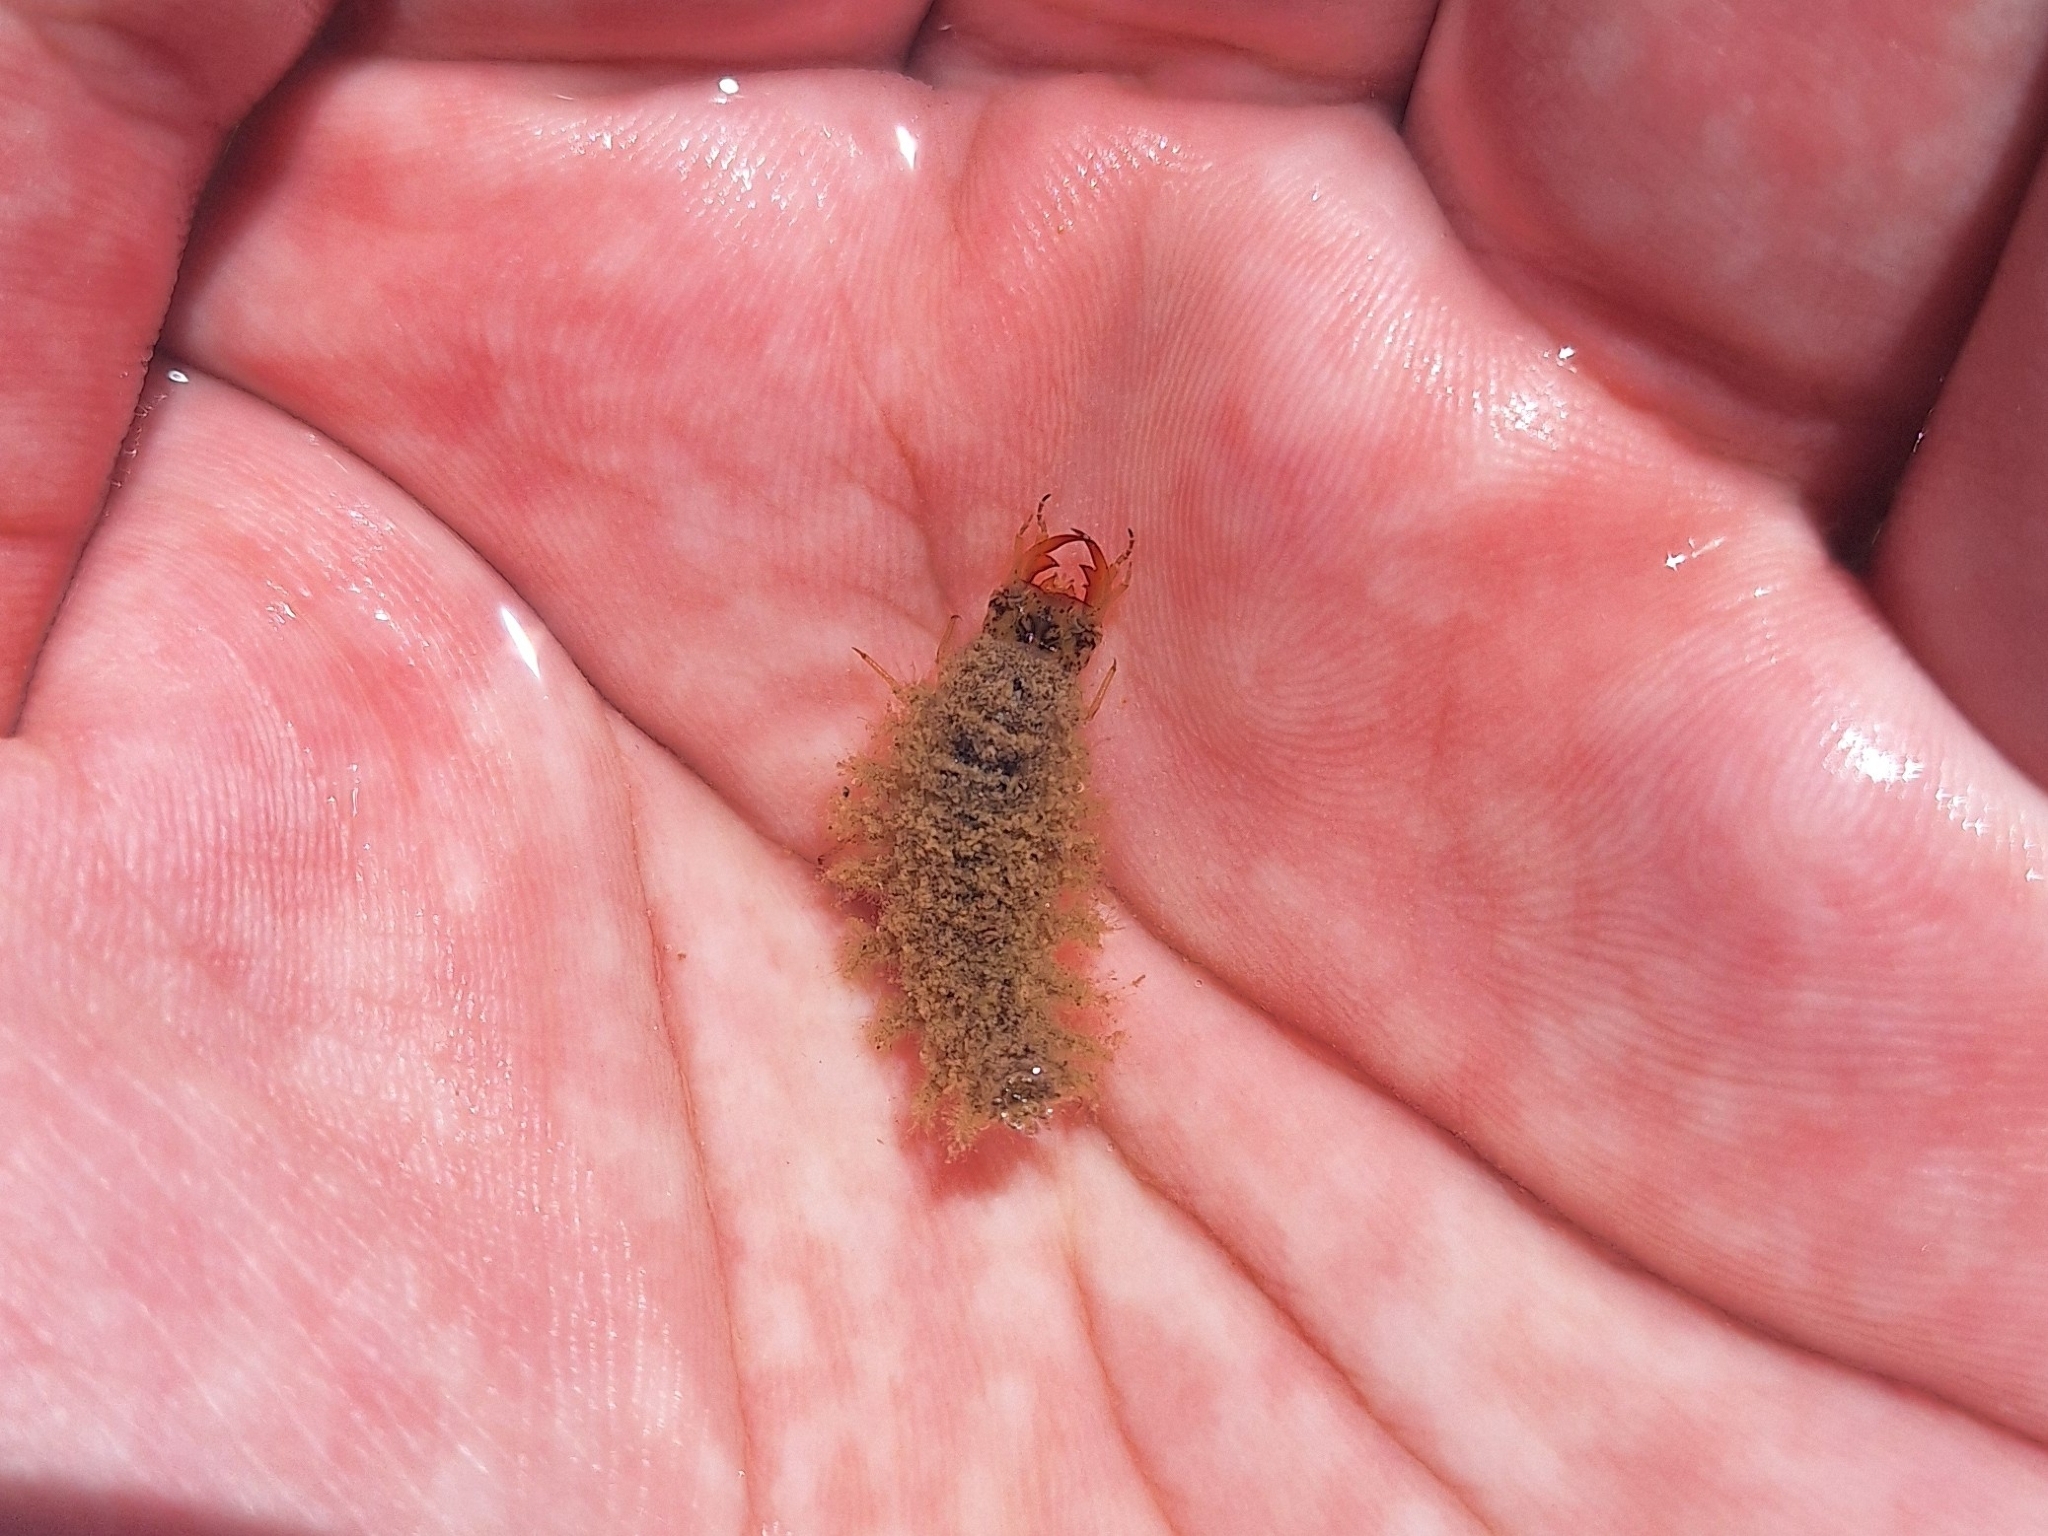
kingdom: Animalia
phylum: Arthropoda
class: Insecta
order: Coleoptera
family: Hydrophilidae
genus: Hydrochara
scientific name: Hydrochara lineata
